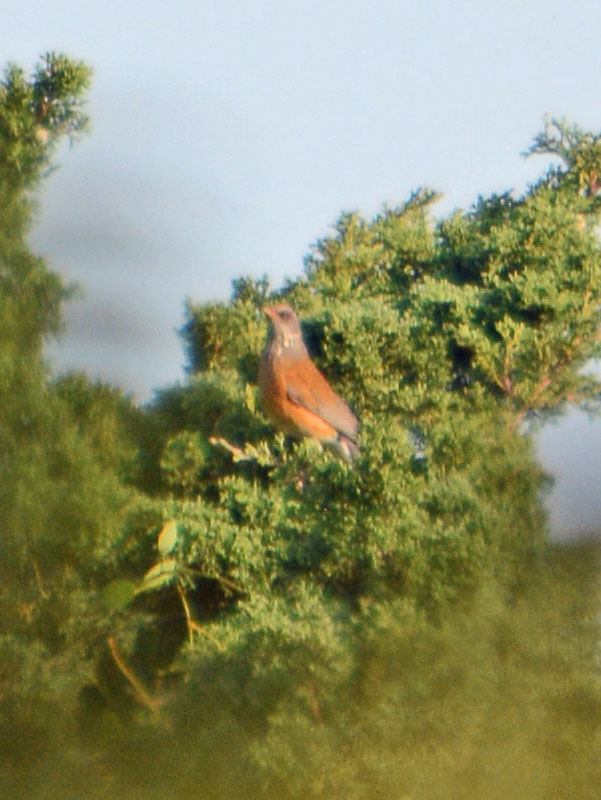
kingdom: Animalia
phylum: Chordata
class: Aves
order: Passeriformes
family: Turdidae
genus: Turdus
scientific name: Turdus rufopalliatus
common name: Rufous-backed robin
